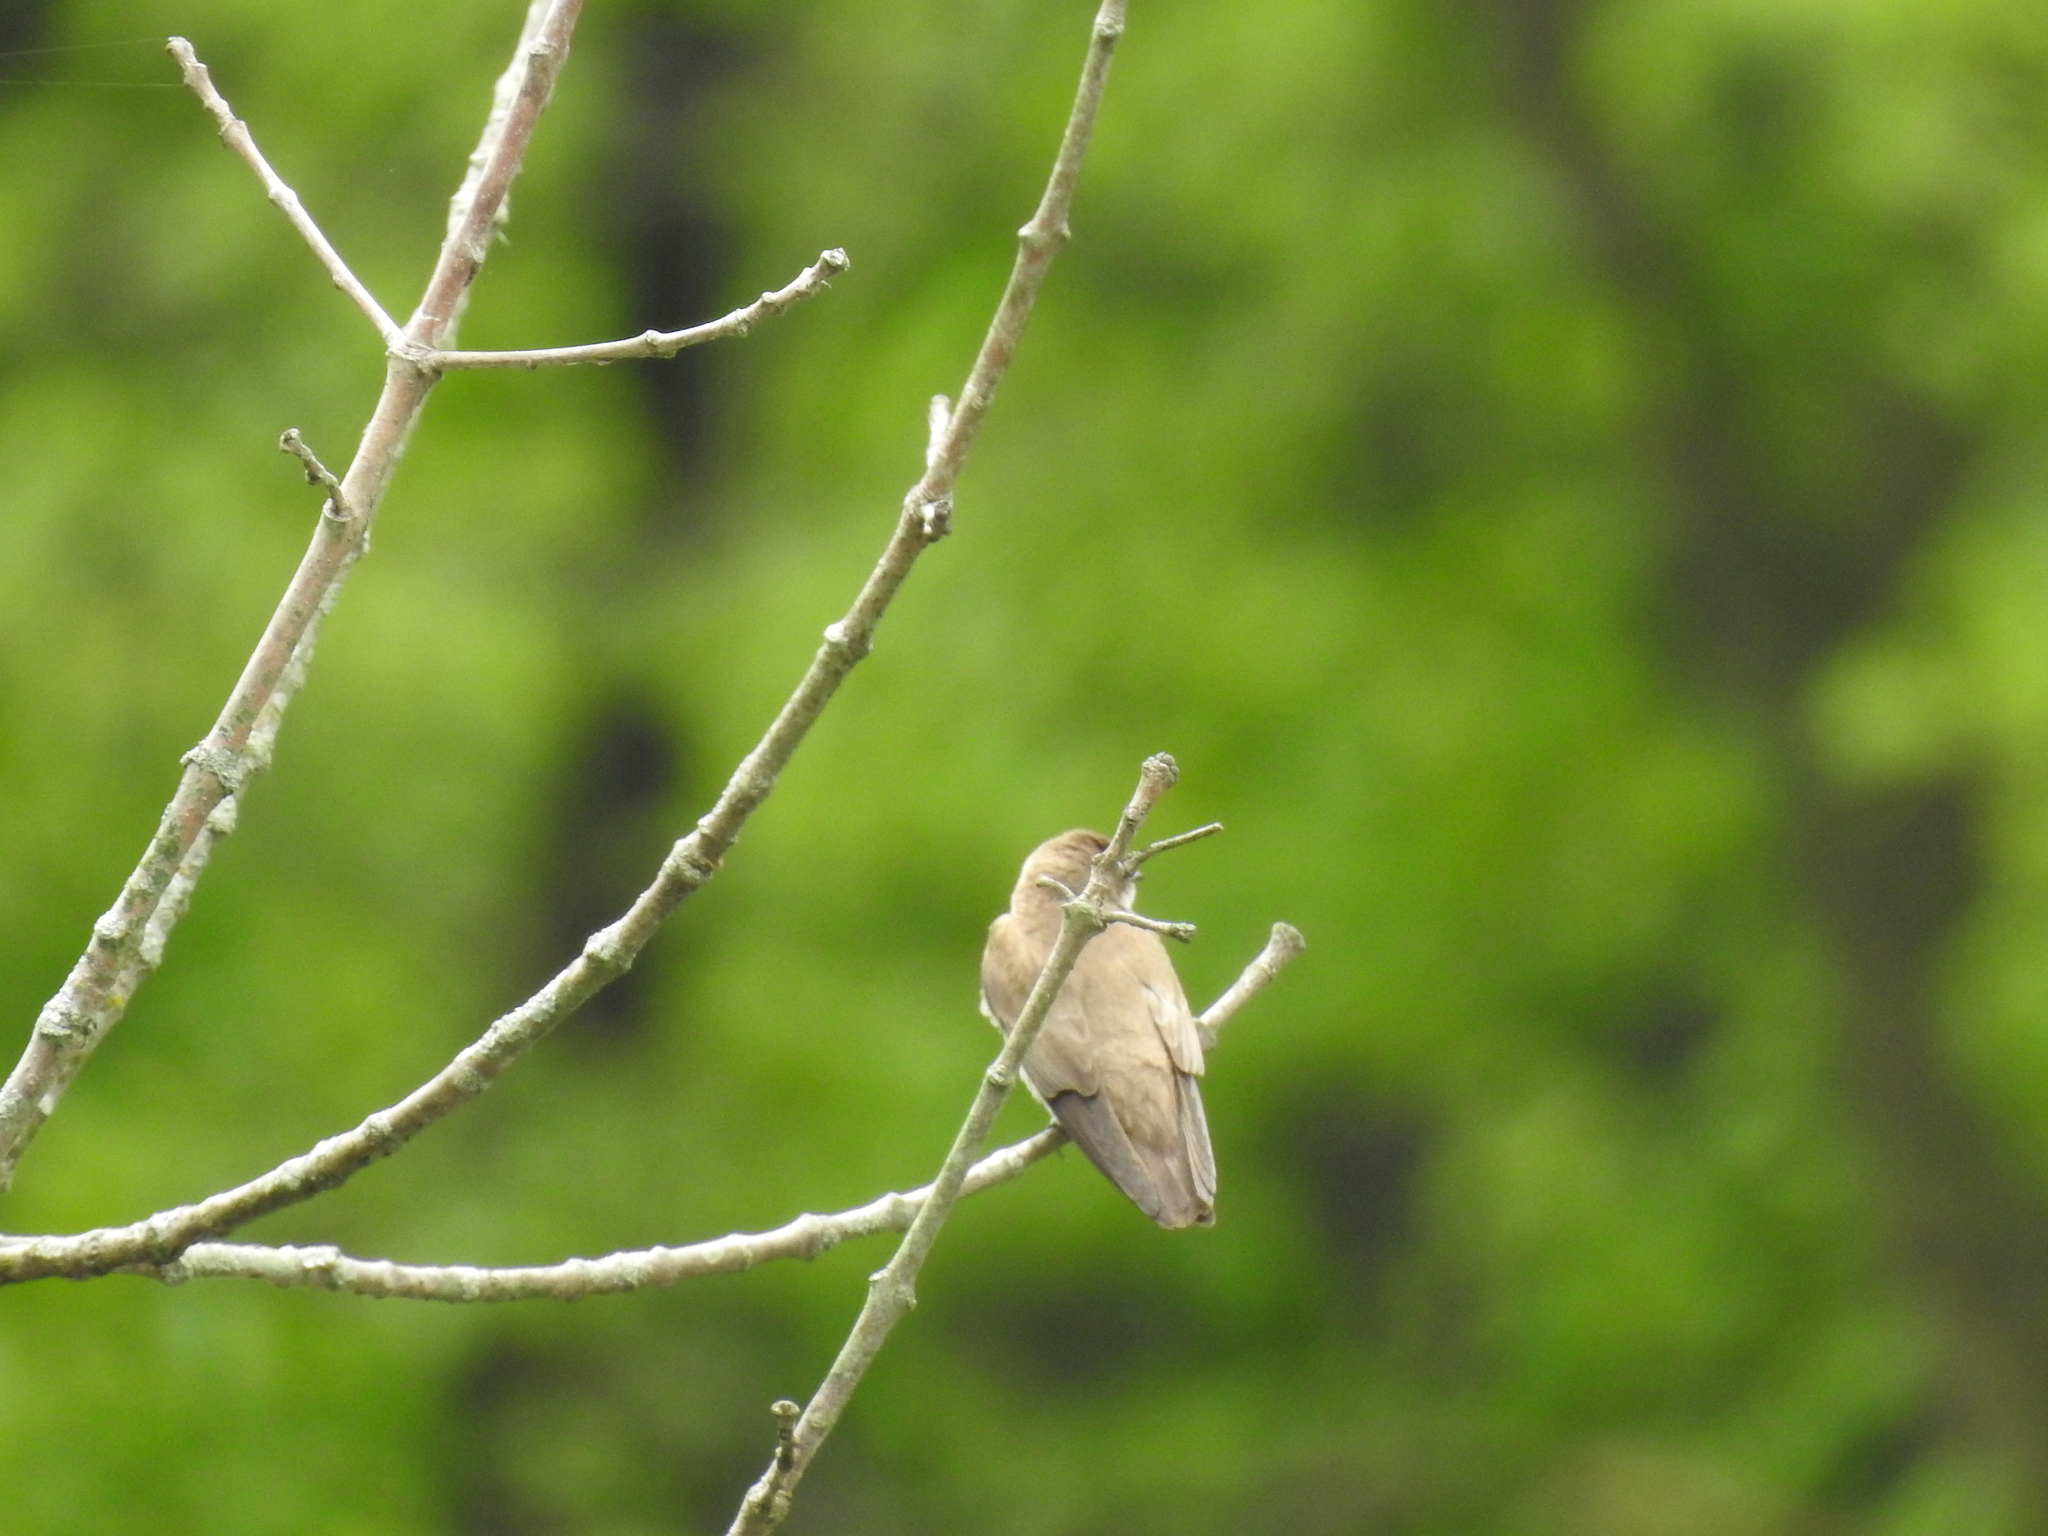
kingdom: Animalia
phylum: Chordata
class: Aves
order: Passeriformes
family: Hirundinidae
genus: Stelgidopteryx
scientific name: Stelgidopteryx serripennis
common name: Northern rough-winged swallow
